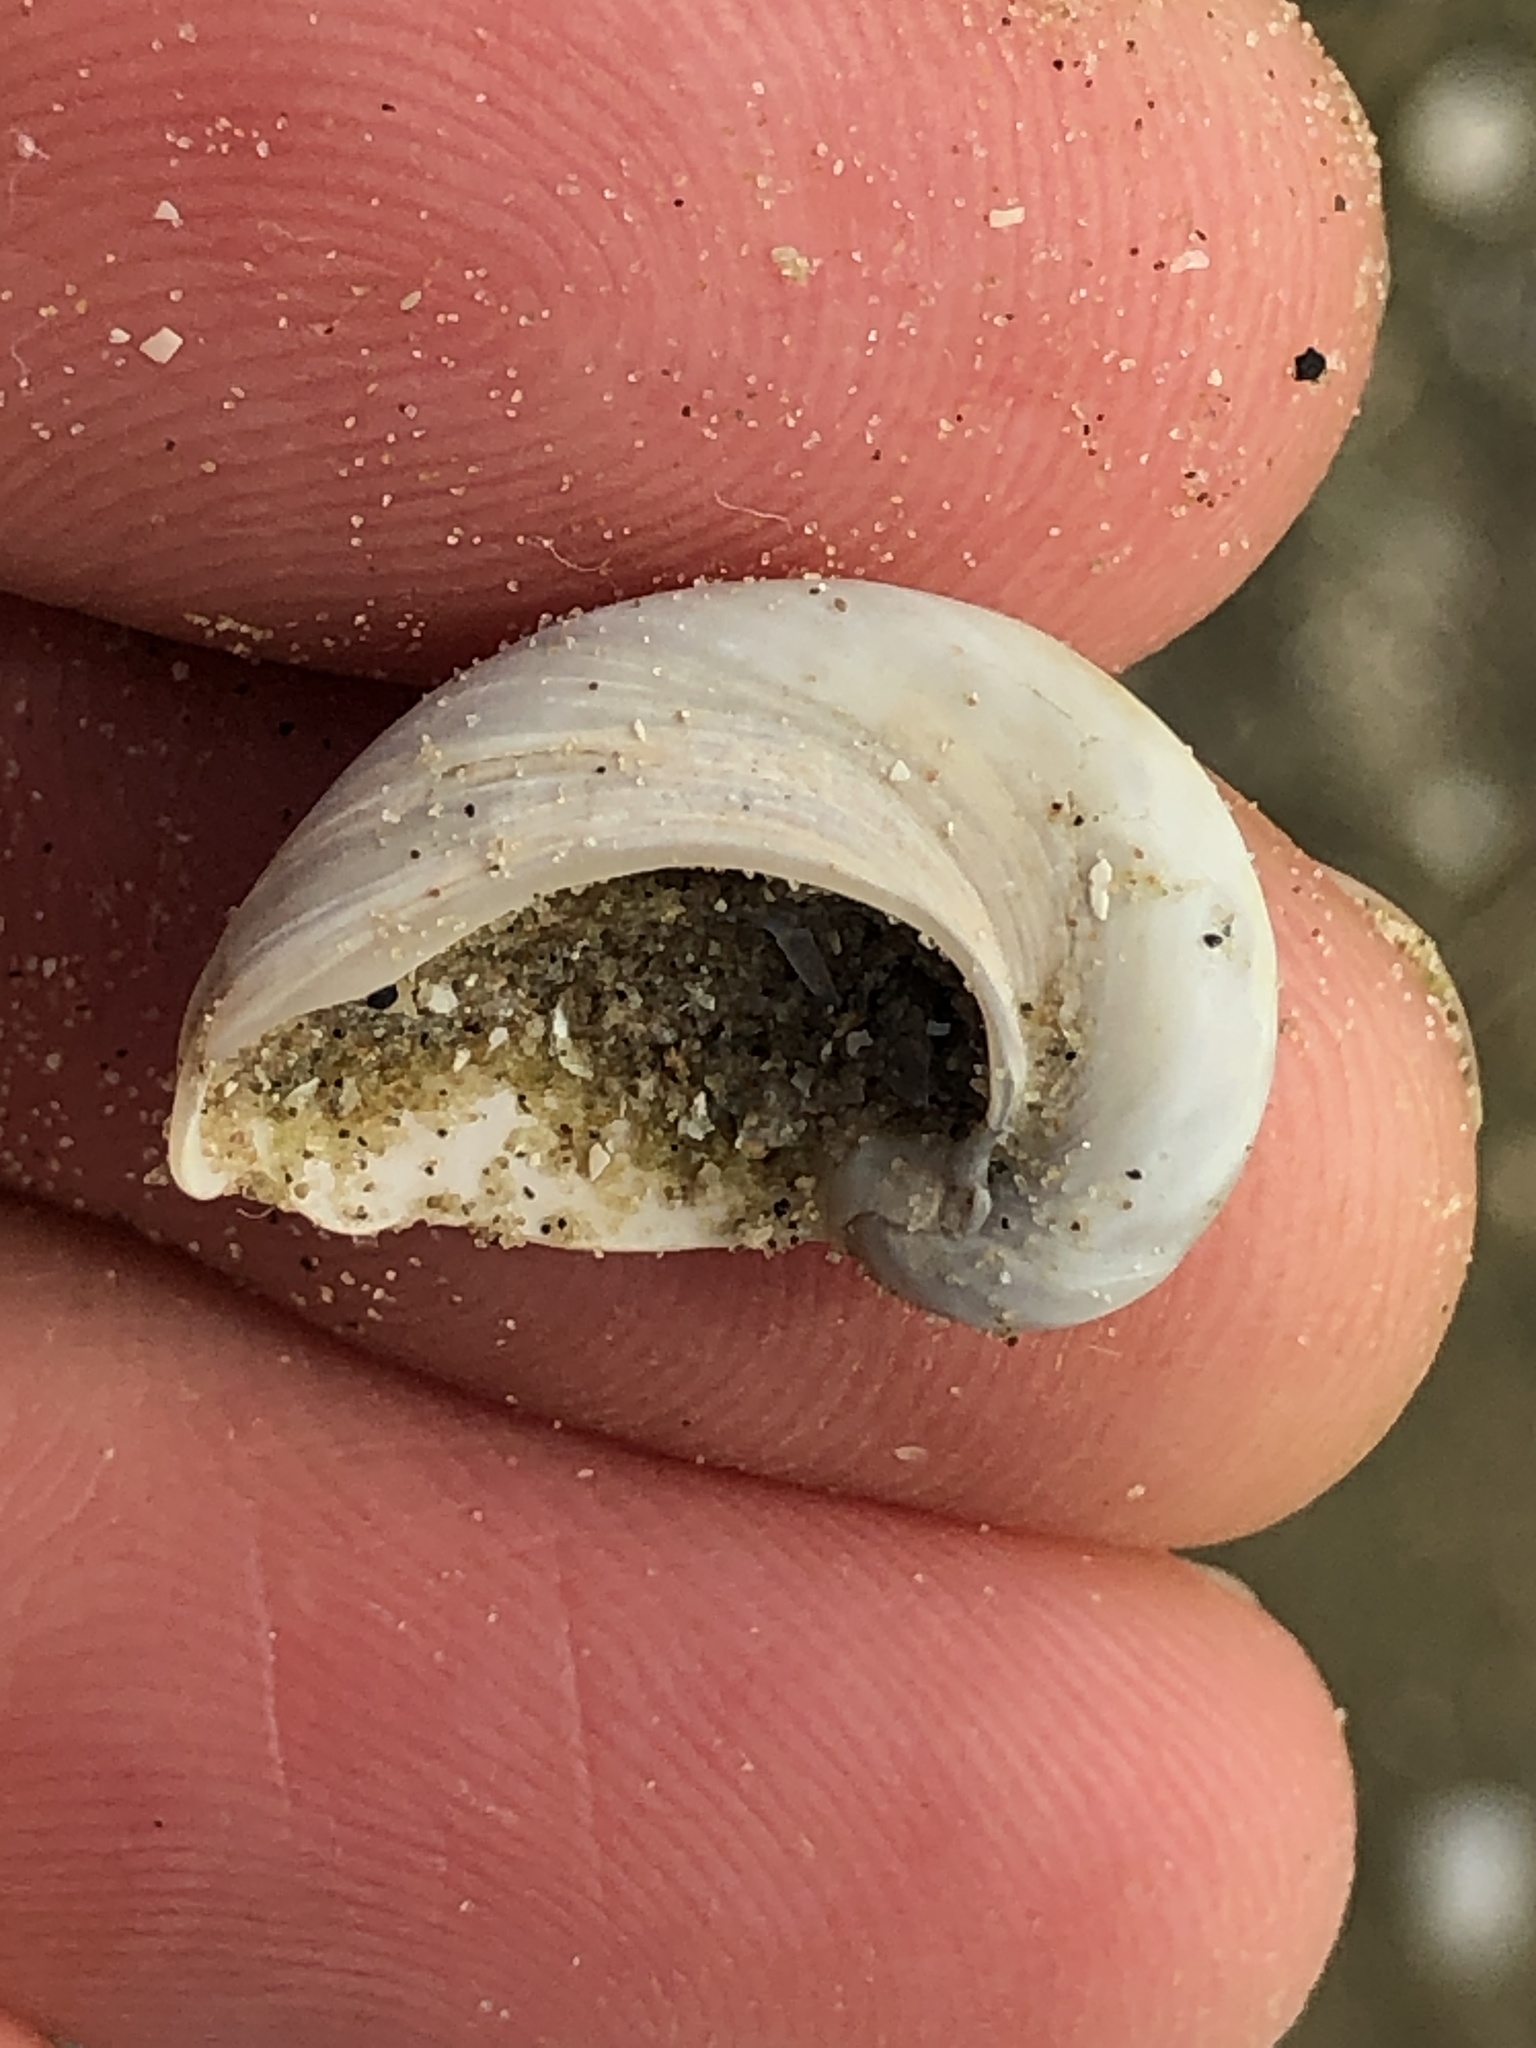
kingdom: Animalia
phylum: Mollusca
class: Gastropoda
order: Littorinimorpha
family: Naticidae
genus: Sinum
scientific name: Sinum perspectivum
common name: White baby ear
